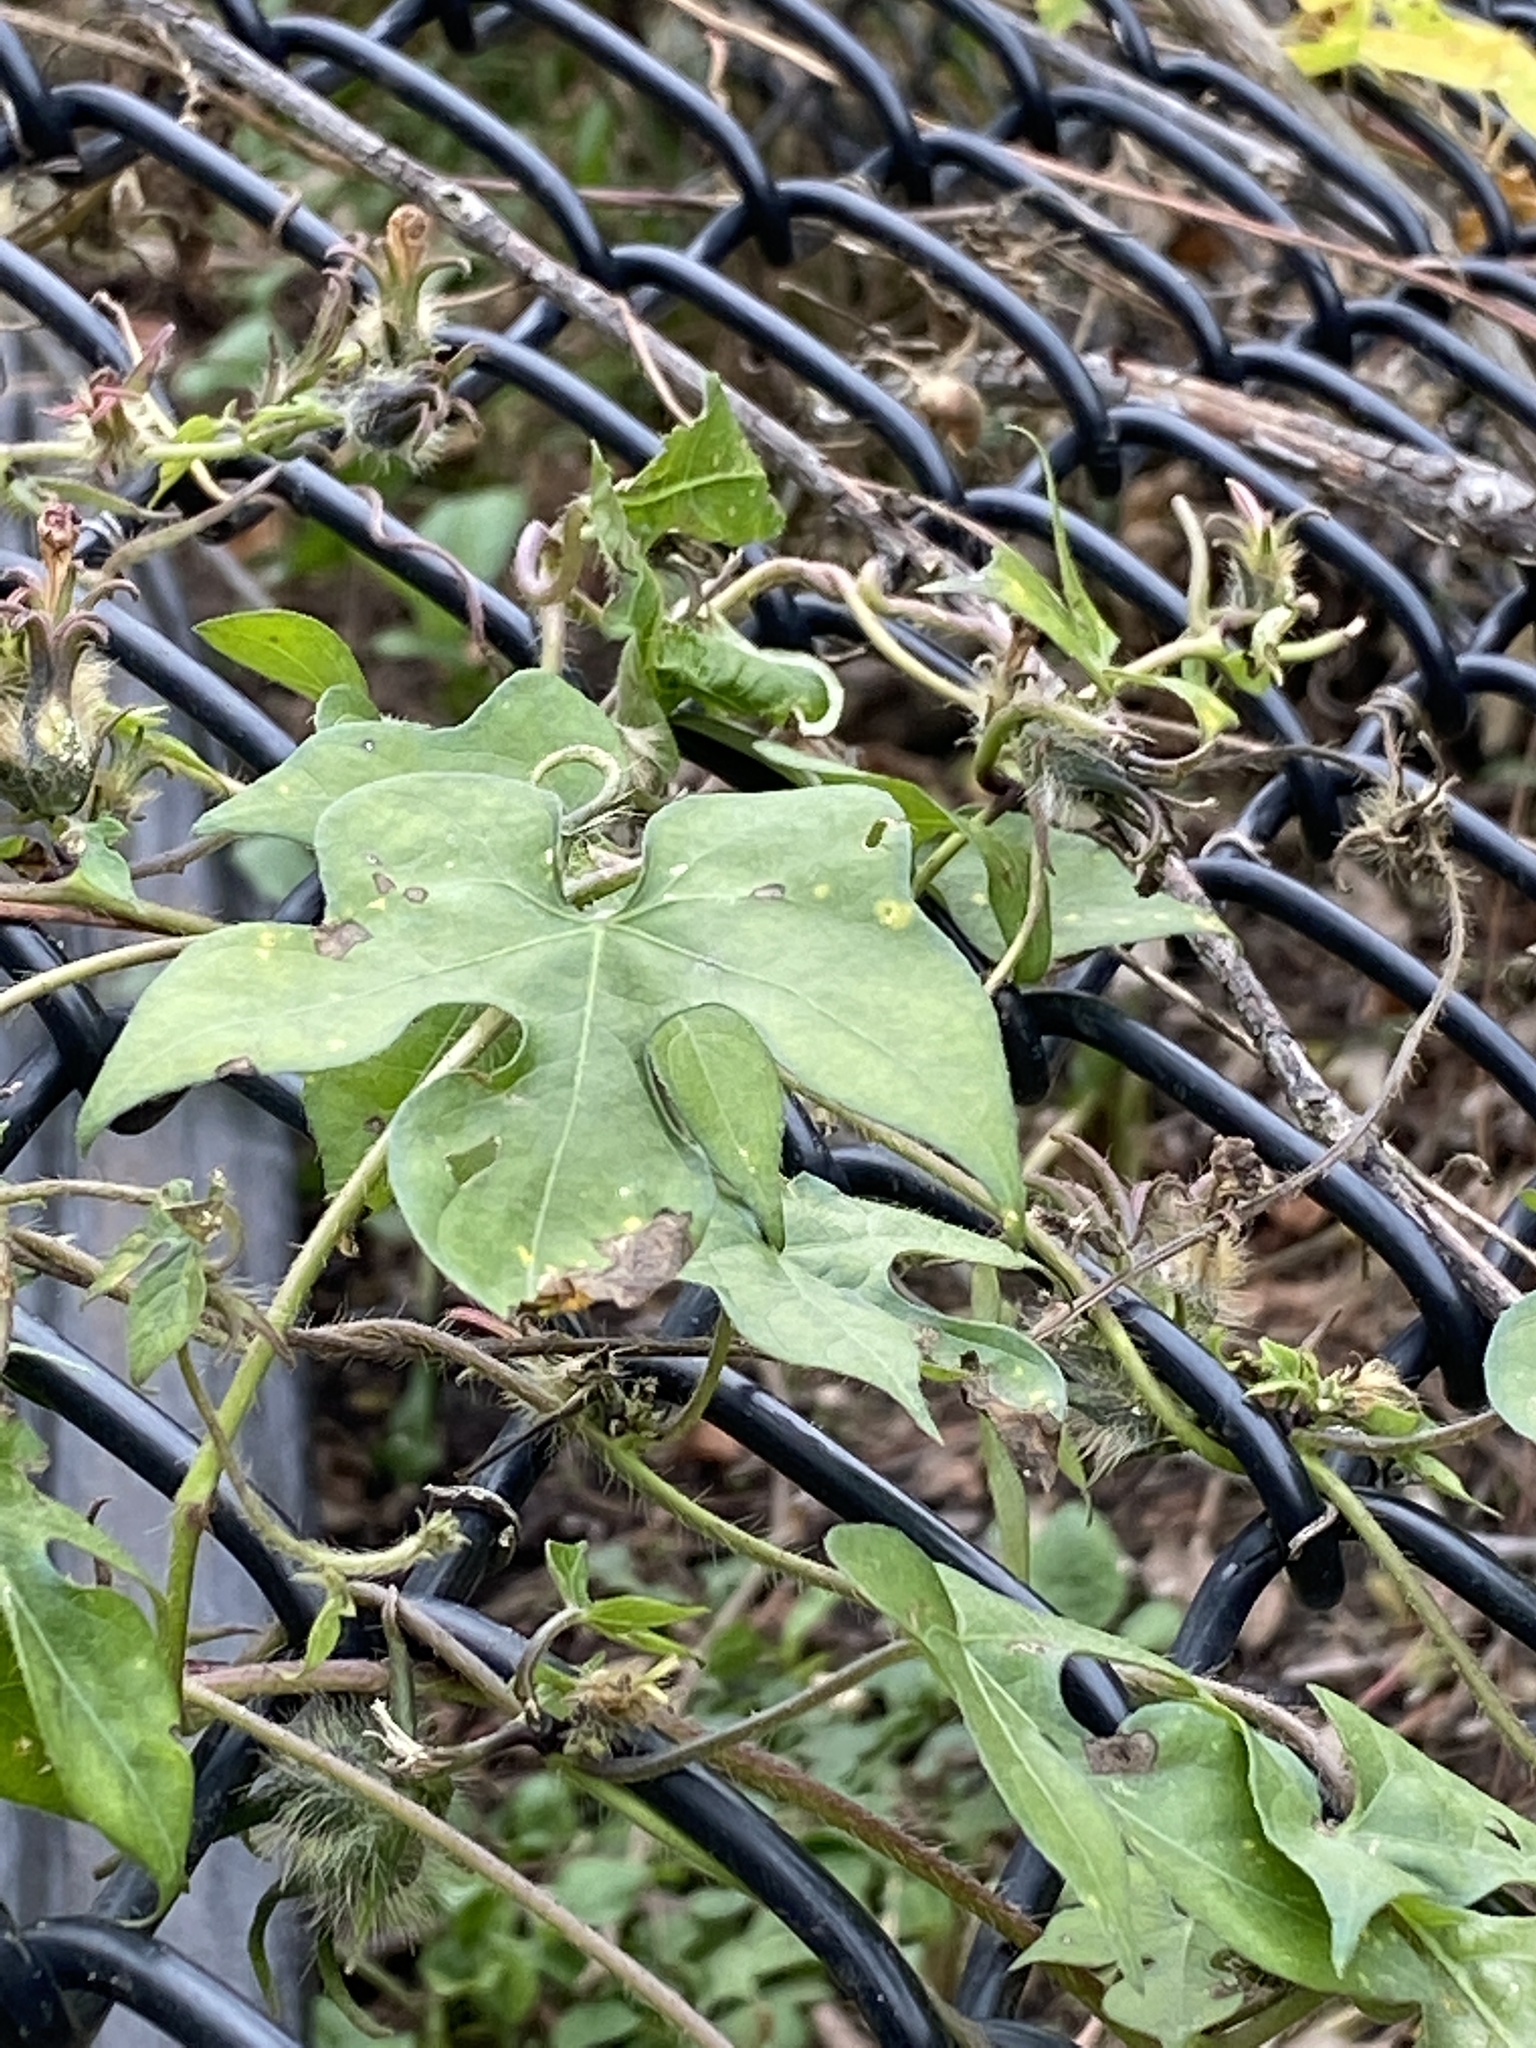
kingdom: Plantae
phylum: Tracheophyta
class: Magnoliopsida
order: Solanales
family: Convolvulaceae
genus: Ipomoea
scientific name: Ipomoea hederacea
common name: Ivy-leaved morning-glory
